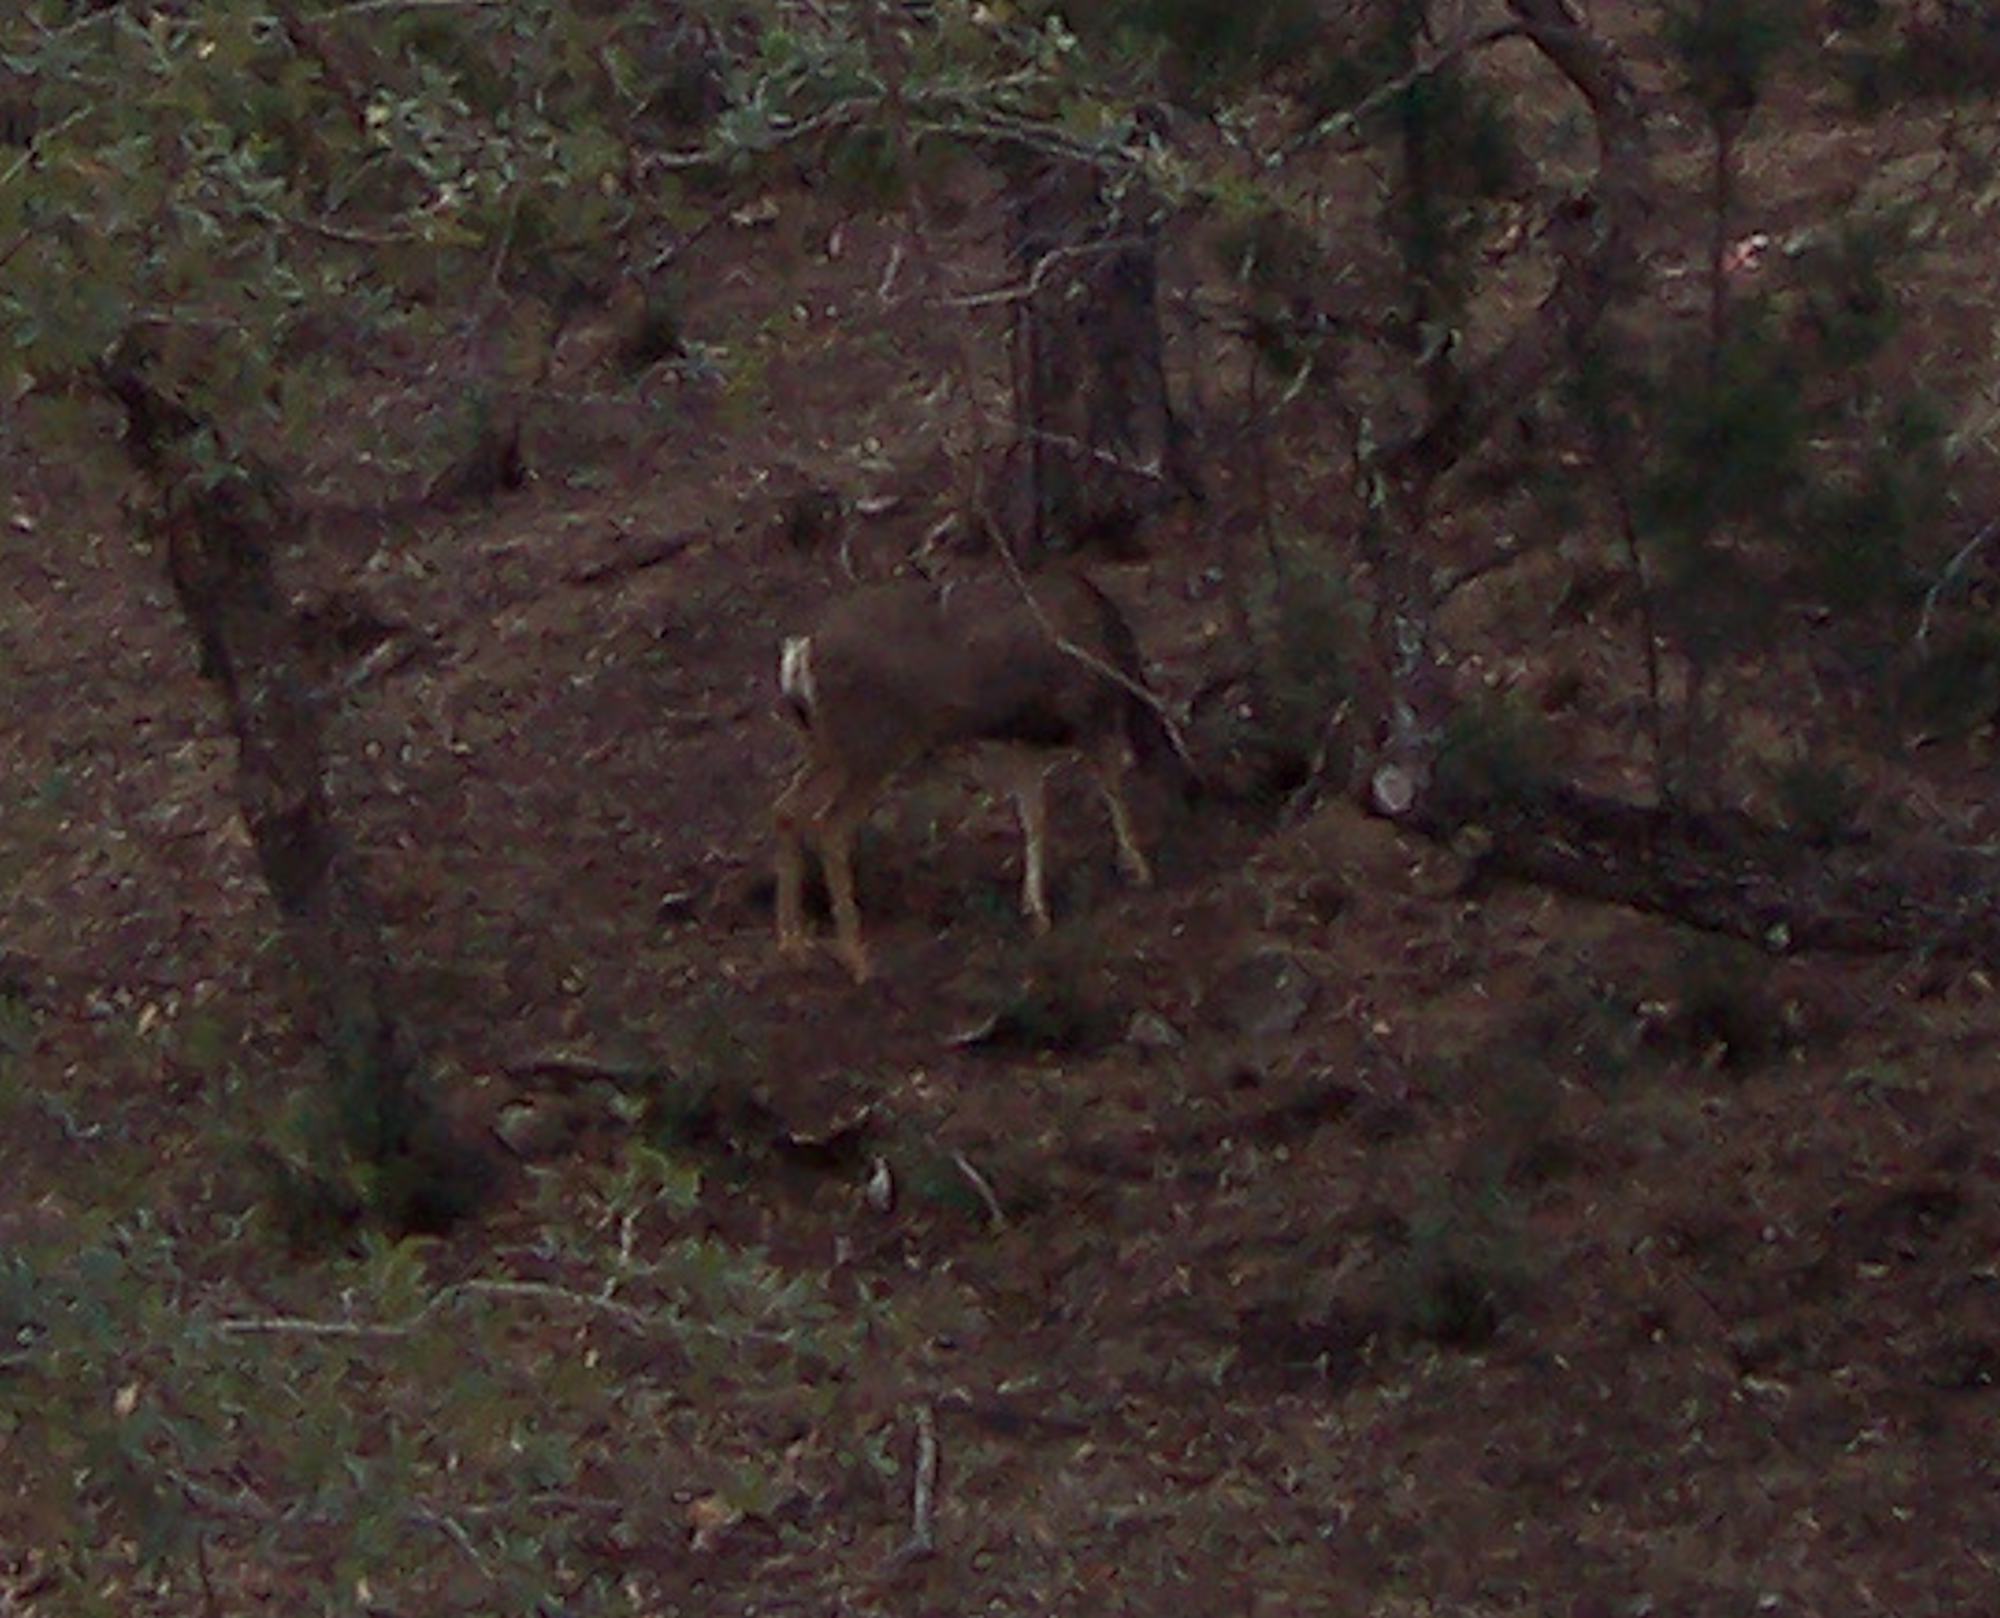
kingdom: Animalia
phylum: Chordata
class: Mammalia
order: Artiodactyla
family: Cervidae
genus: Odocoileus
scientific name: Odocoileus hemionus
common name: Mule deer
